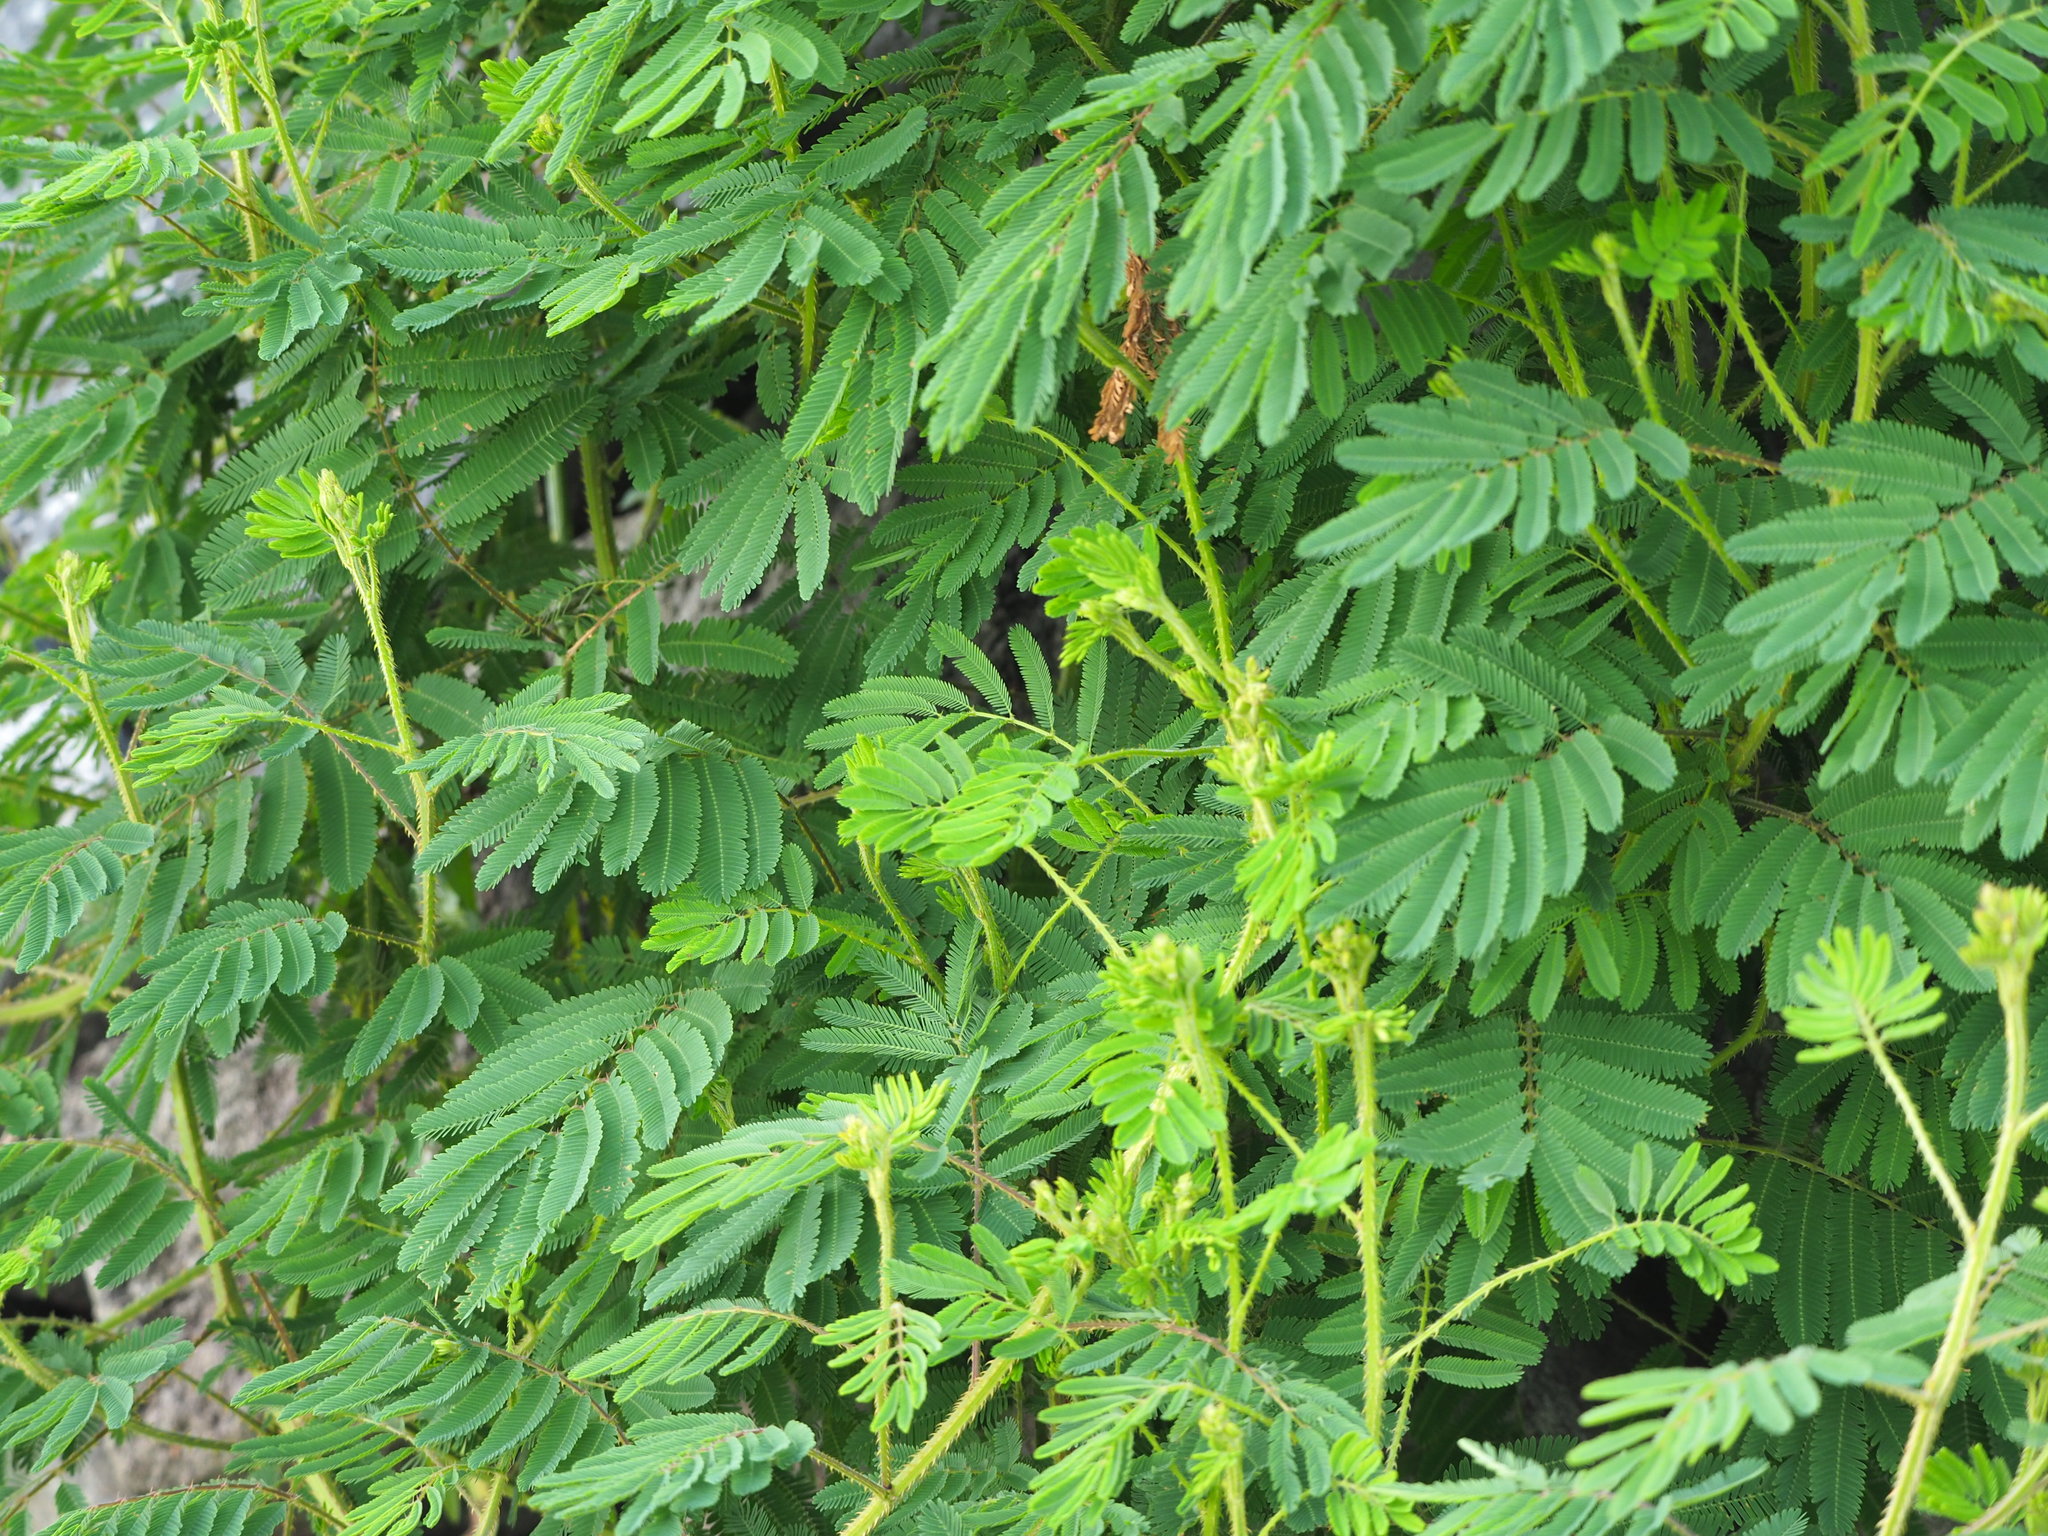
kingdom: Plantae
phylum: Tracheophyta
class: Magnoliopsida
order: Fabales
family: Fabaceae
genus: Mimosa
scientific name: Mimosa diplotricha
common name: Giant sensitive-plant
